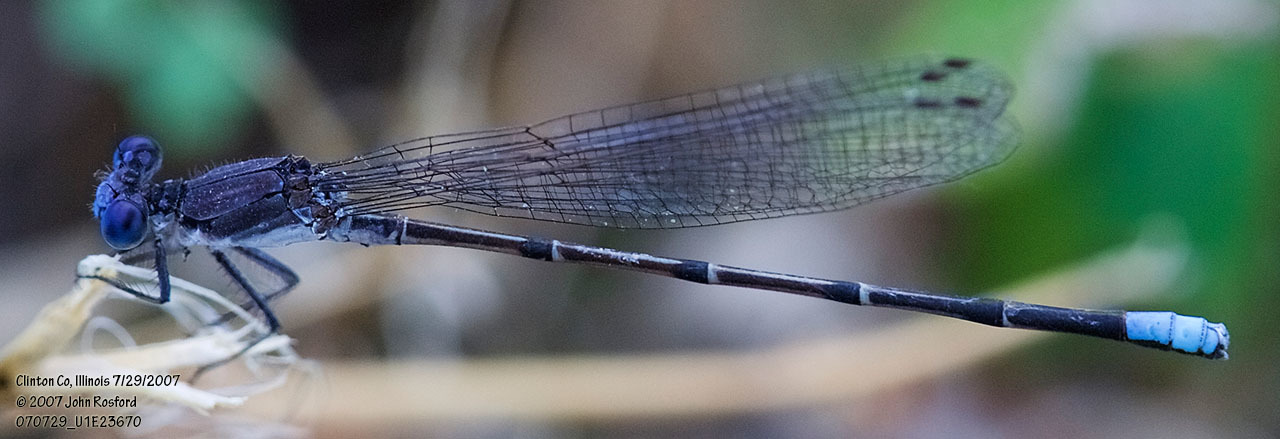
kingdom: Animalia
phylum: Arthropoda
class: Insecta
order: Odonata
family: Coenagrionidae
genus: Argia
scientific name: Argia apicalis
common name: Blue-fronted dancer
